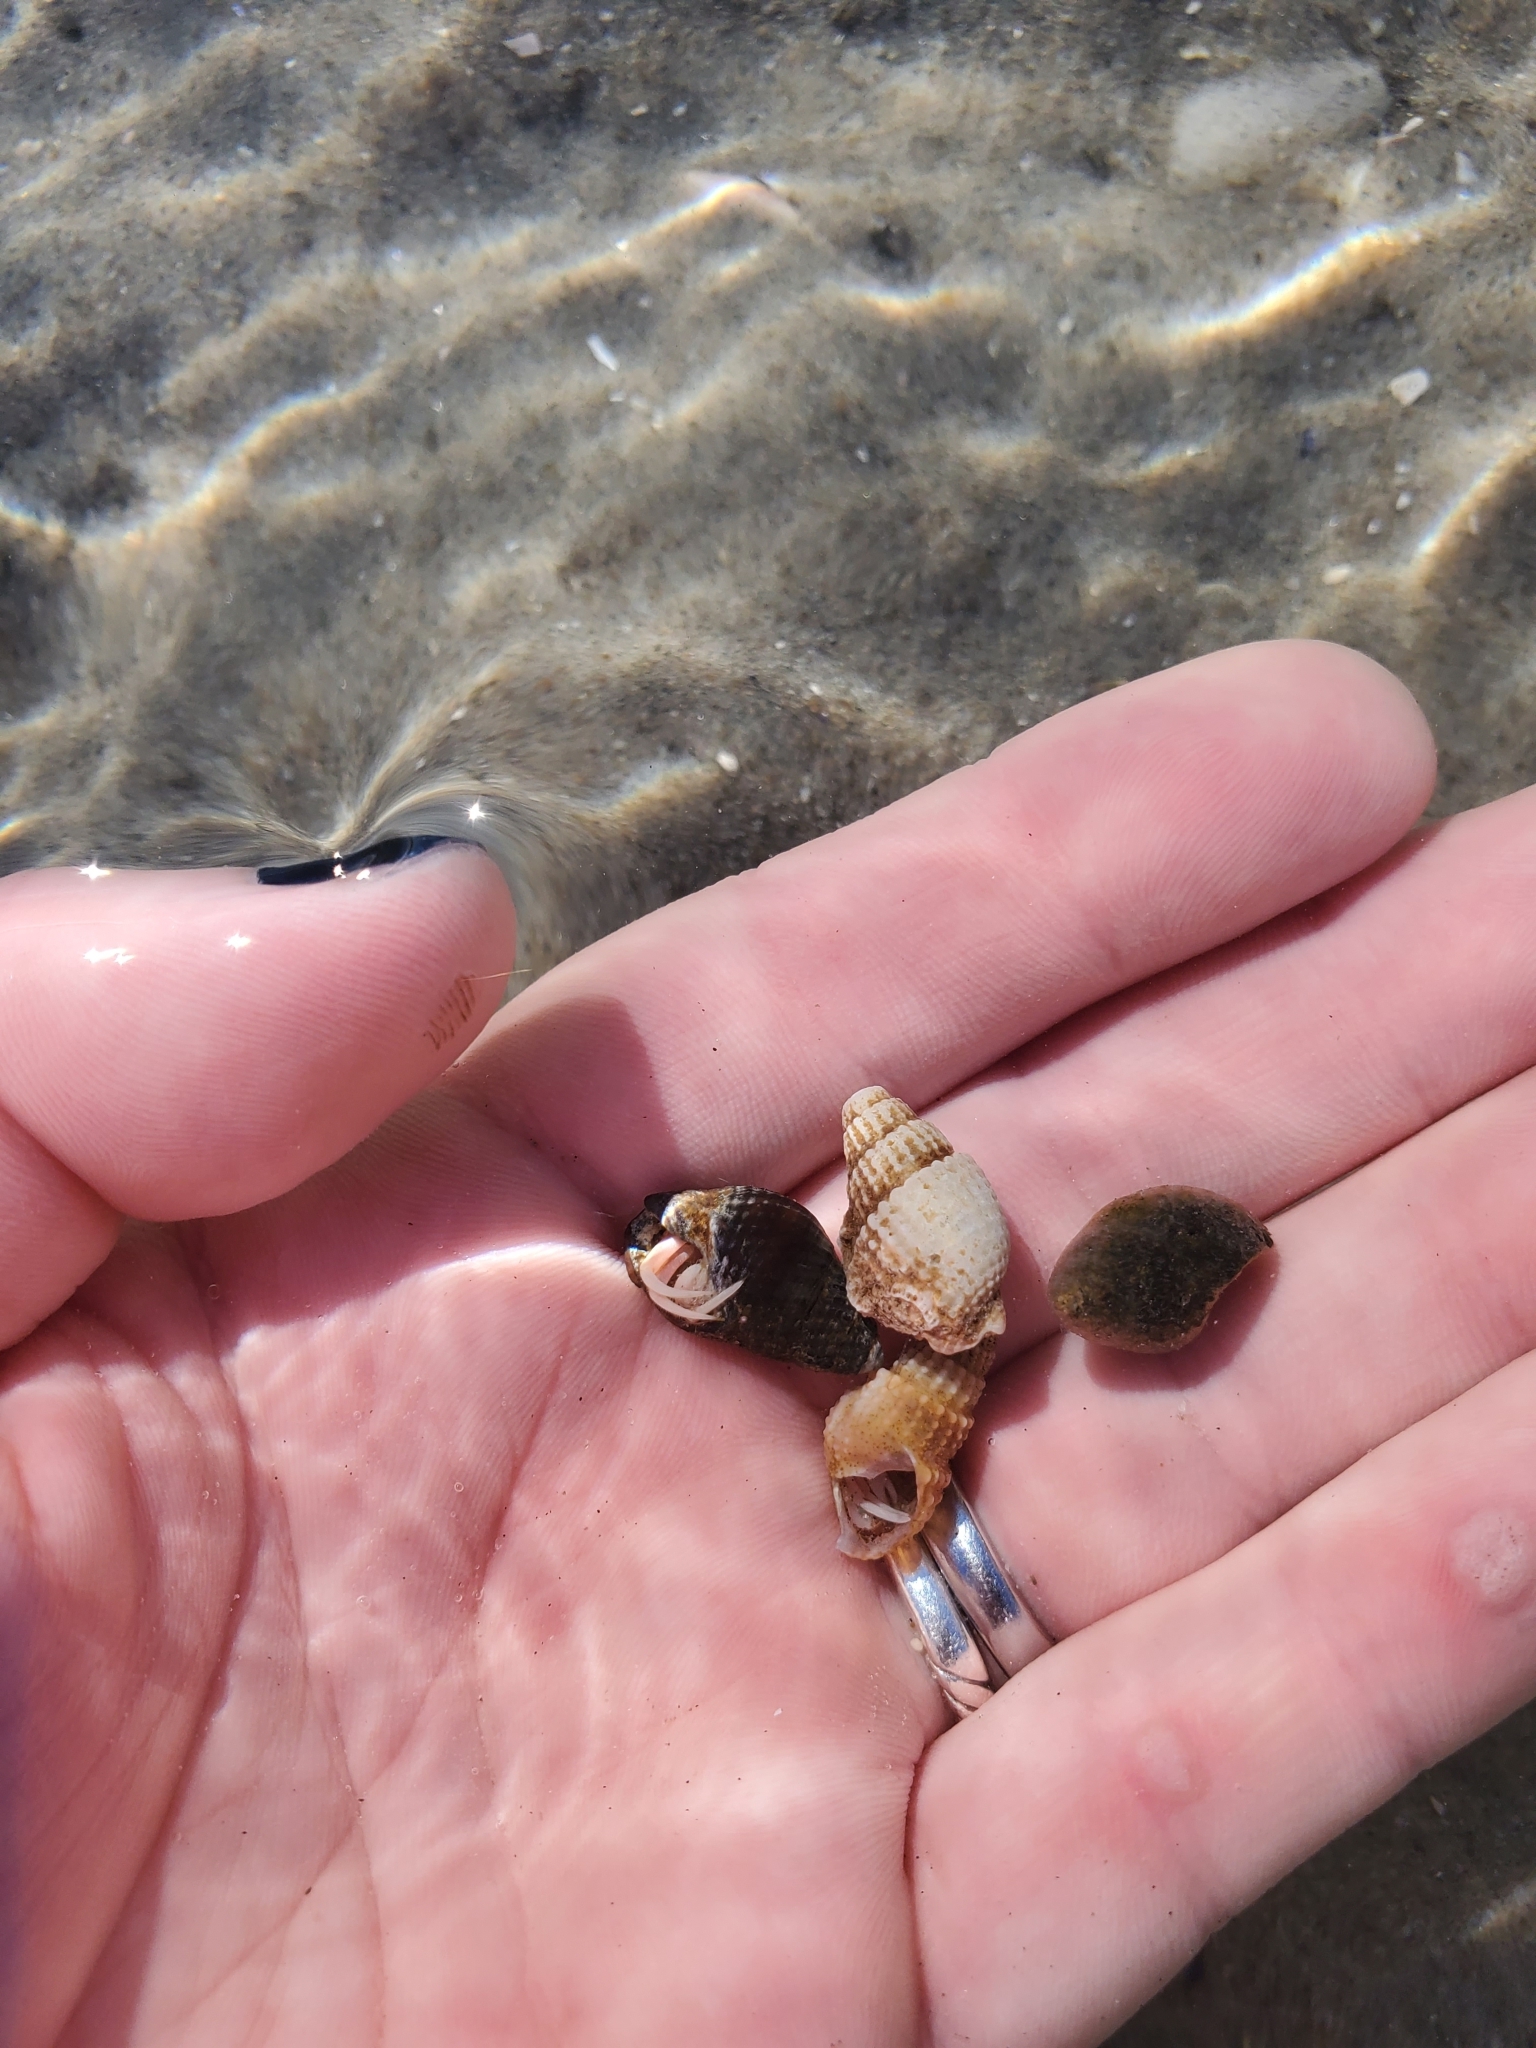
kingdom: Animalia
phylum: Arthropoda
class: Malacostraca
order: Decapoda
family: Paguridae
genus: Pagurus
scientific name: Pagurus longicarpus
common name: Long-armed hermit crab
